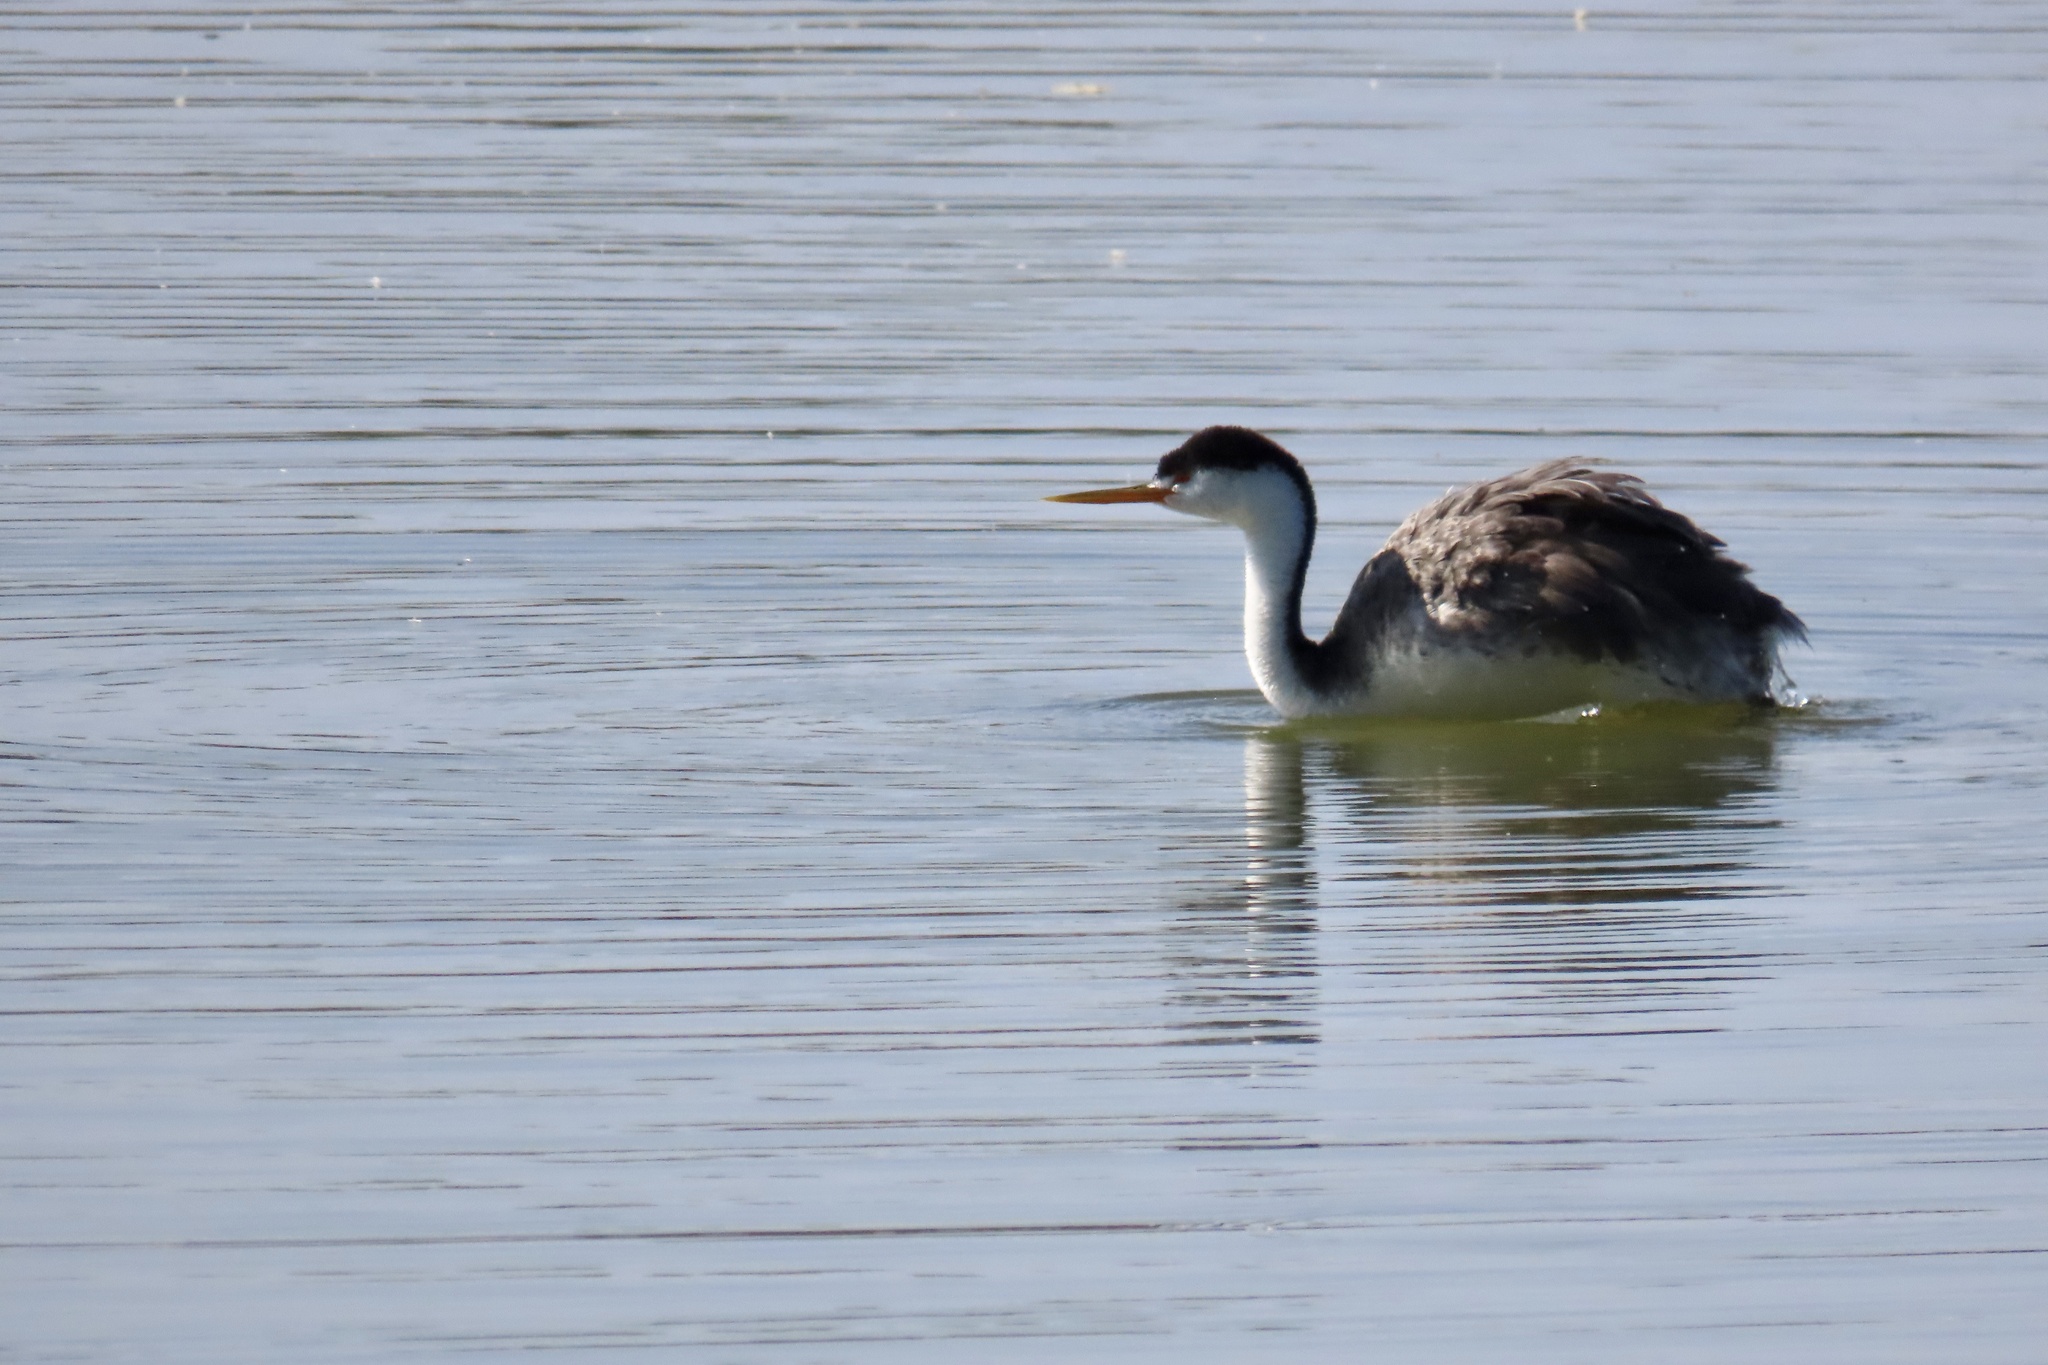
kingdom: Animalia
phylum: Chordata
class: Aves
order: Podicipediformes
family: Podicipedidae
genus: Aechmophorus
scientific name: Aechmophorus clarkii
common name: Clark's grebe
